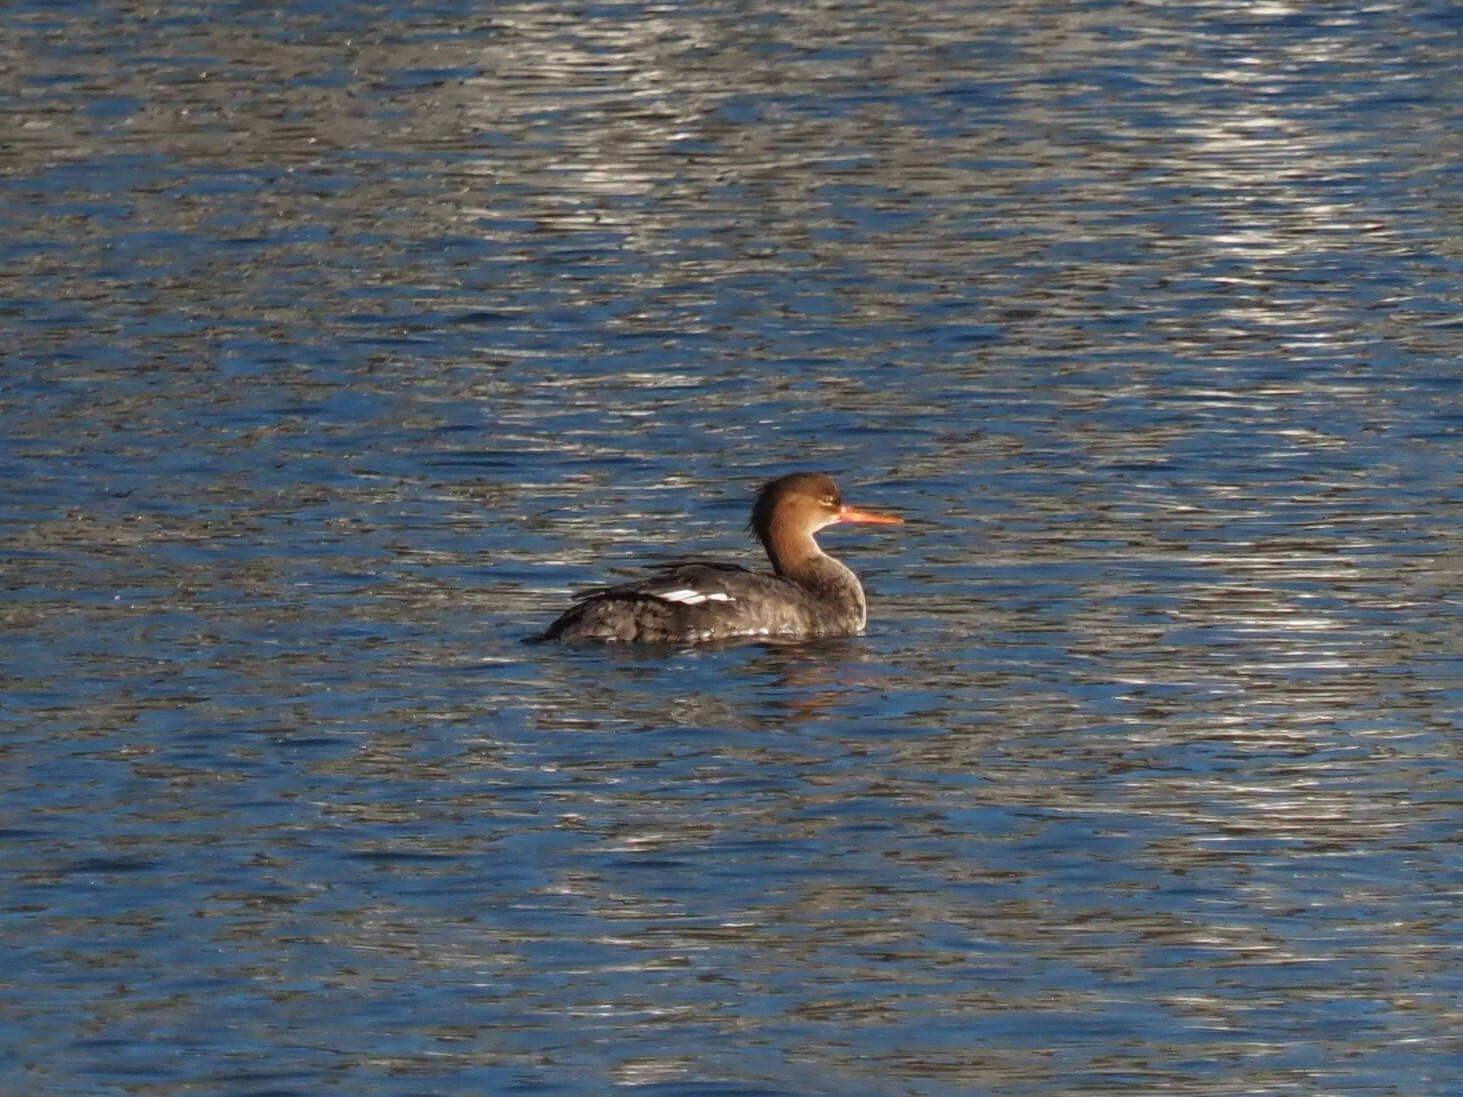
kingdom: Animalia
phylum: Chordata
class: Aves
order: Anseriformes
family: Anatidae
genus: Mergus
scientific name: Mergus serrator
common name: Red-breasted merganser
